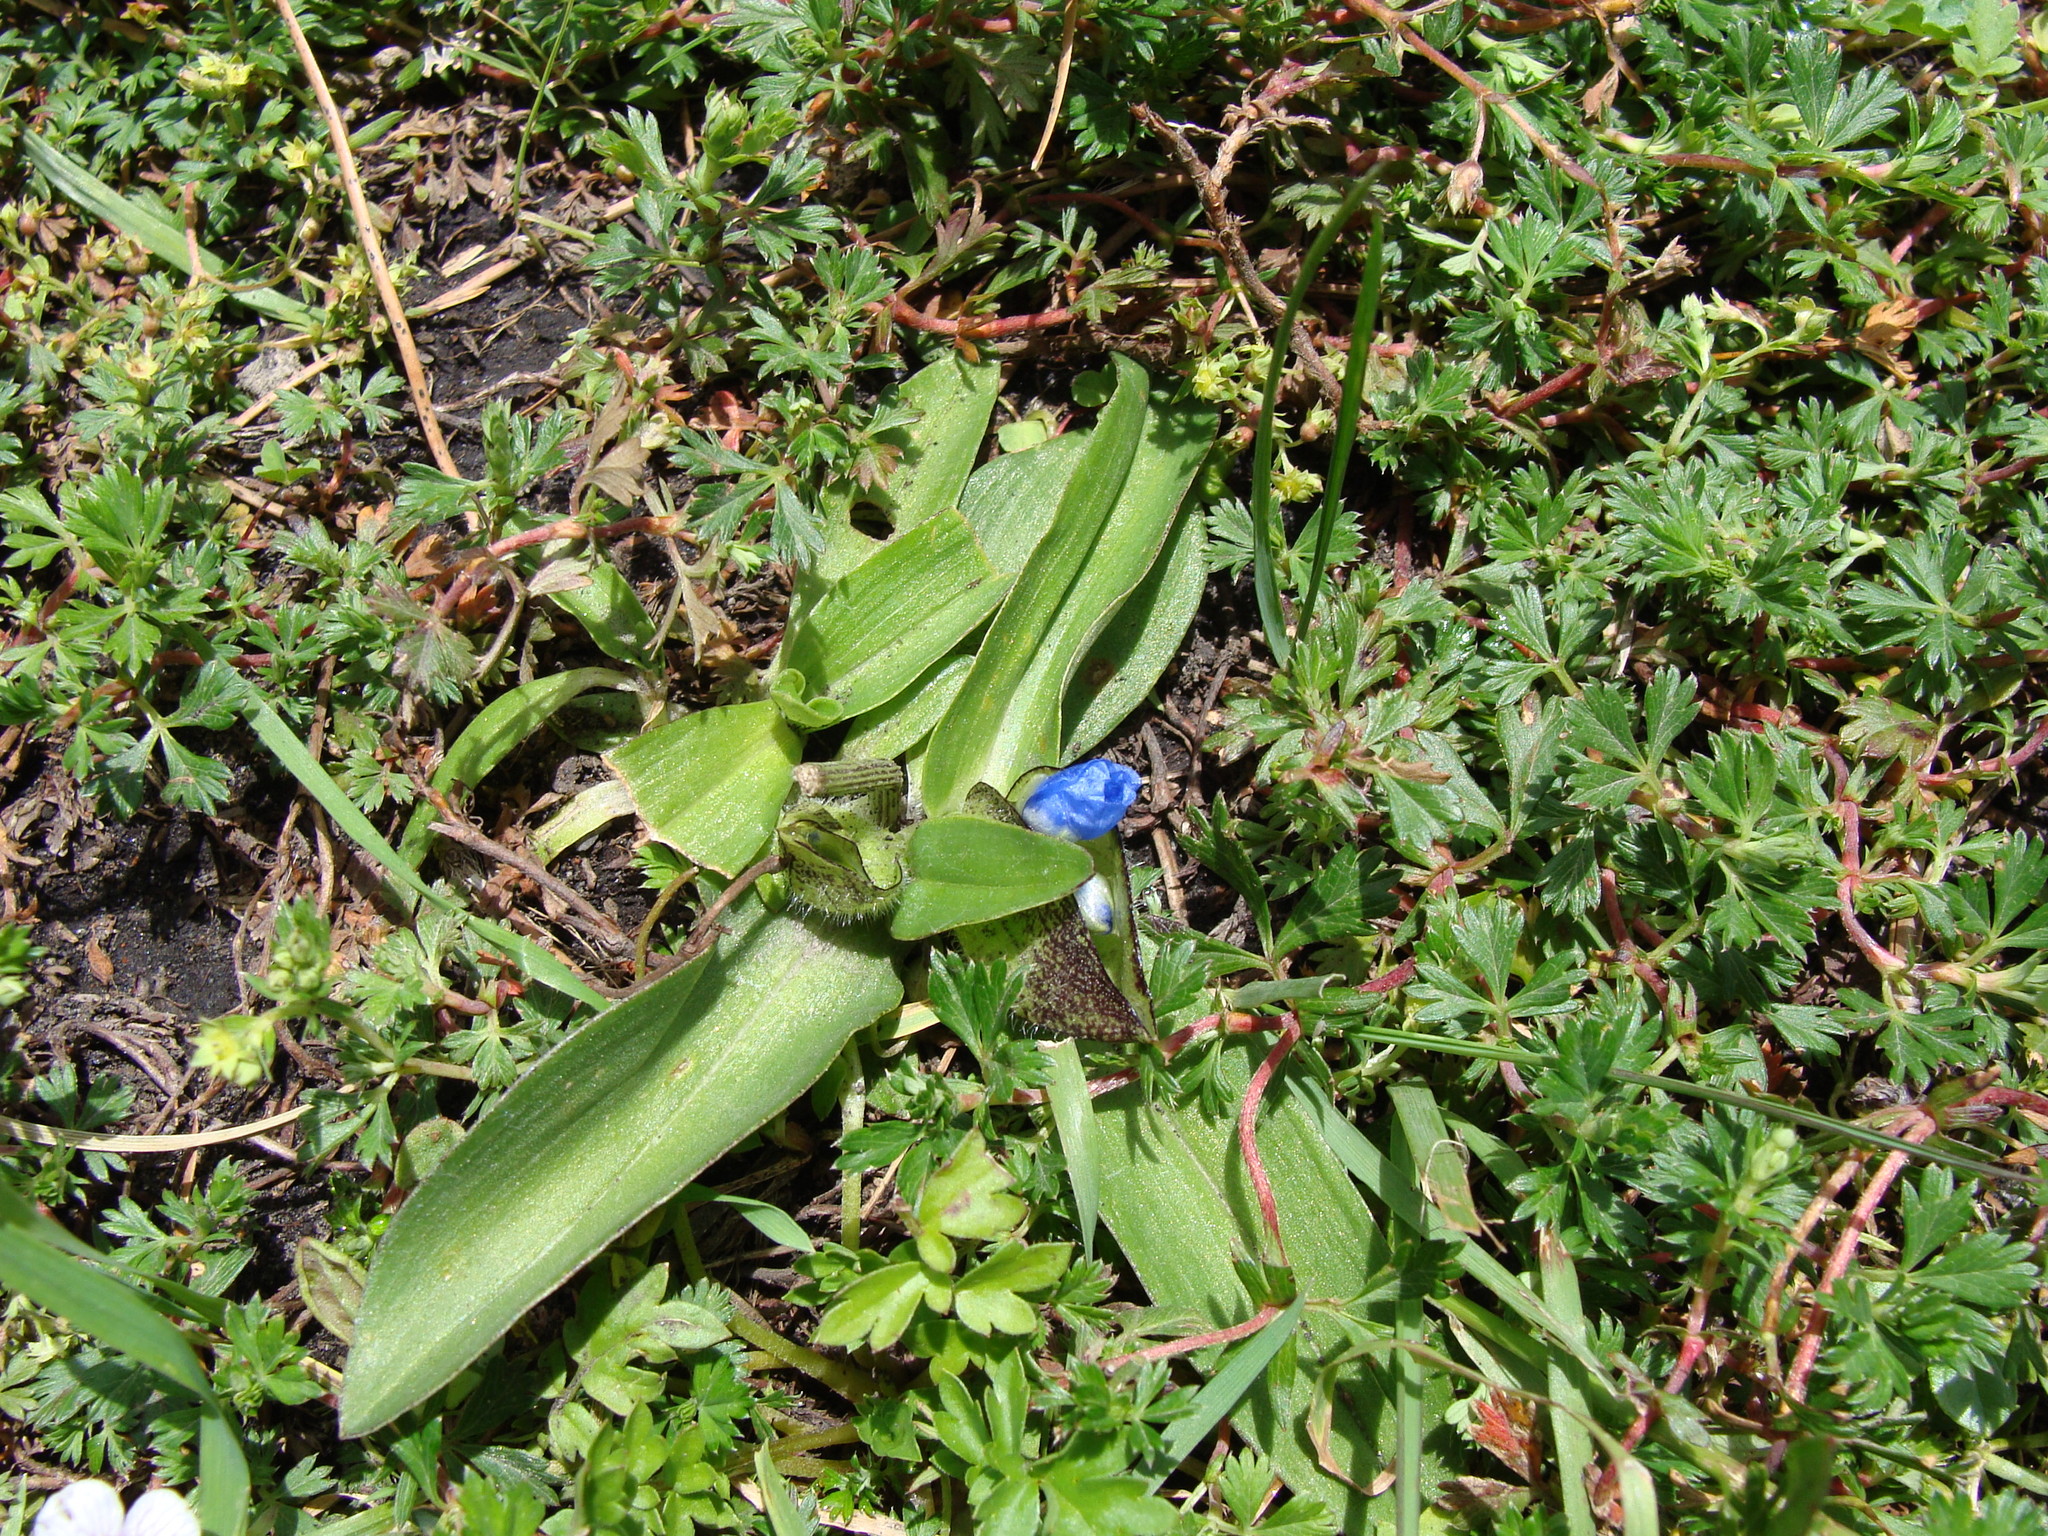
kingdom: Plantae
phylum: Tracheophyta
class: Liliopsida
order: Commelinales
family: Commelinaceae
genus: Commelina
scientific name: Commelina orchioides
